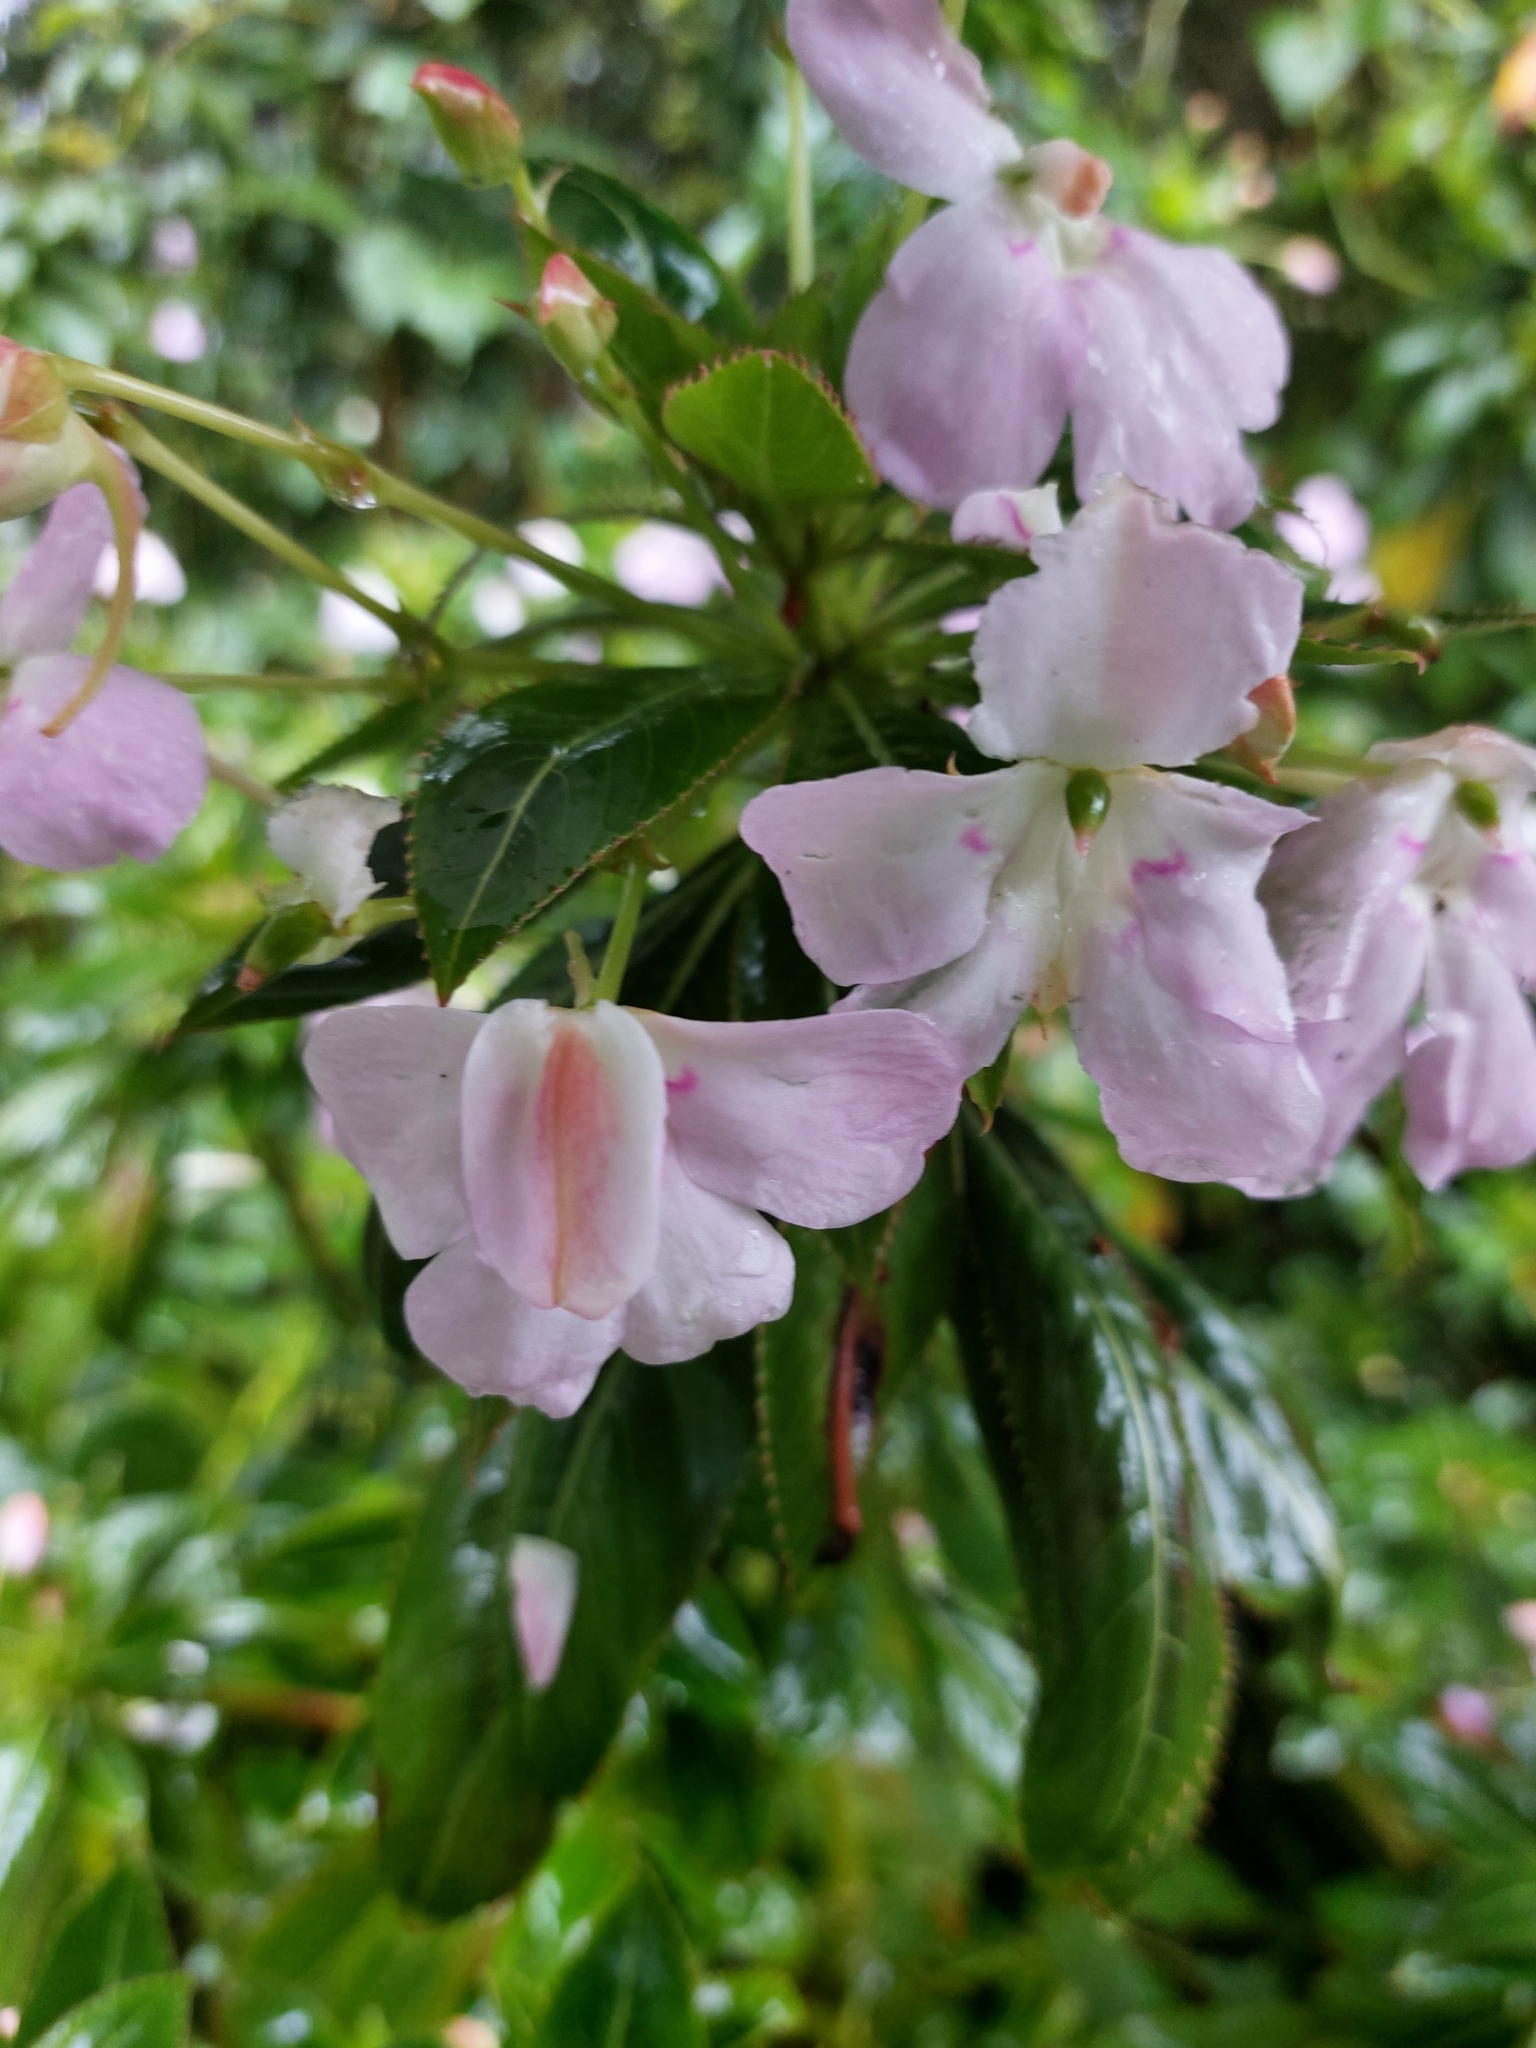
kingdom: Plantae
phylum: Tracheophyta
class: Magnoliopsida
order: Ericales
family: Balsaminaceae
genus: Impatiens
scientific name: Impatiens sodenii
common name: Oliver's touch-me-not
